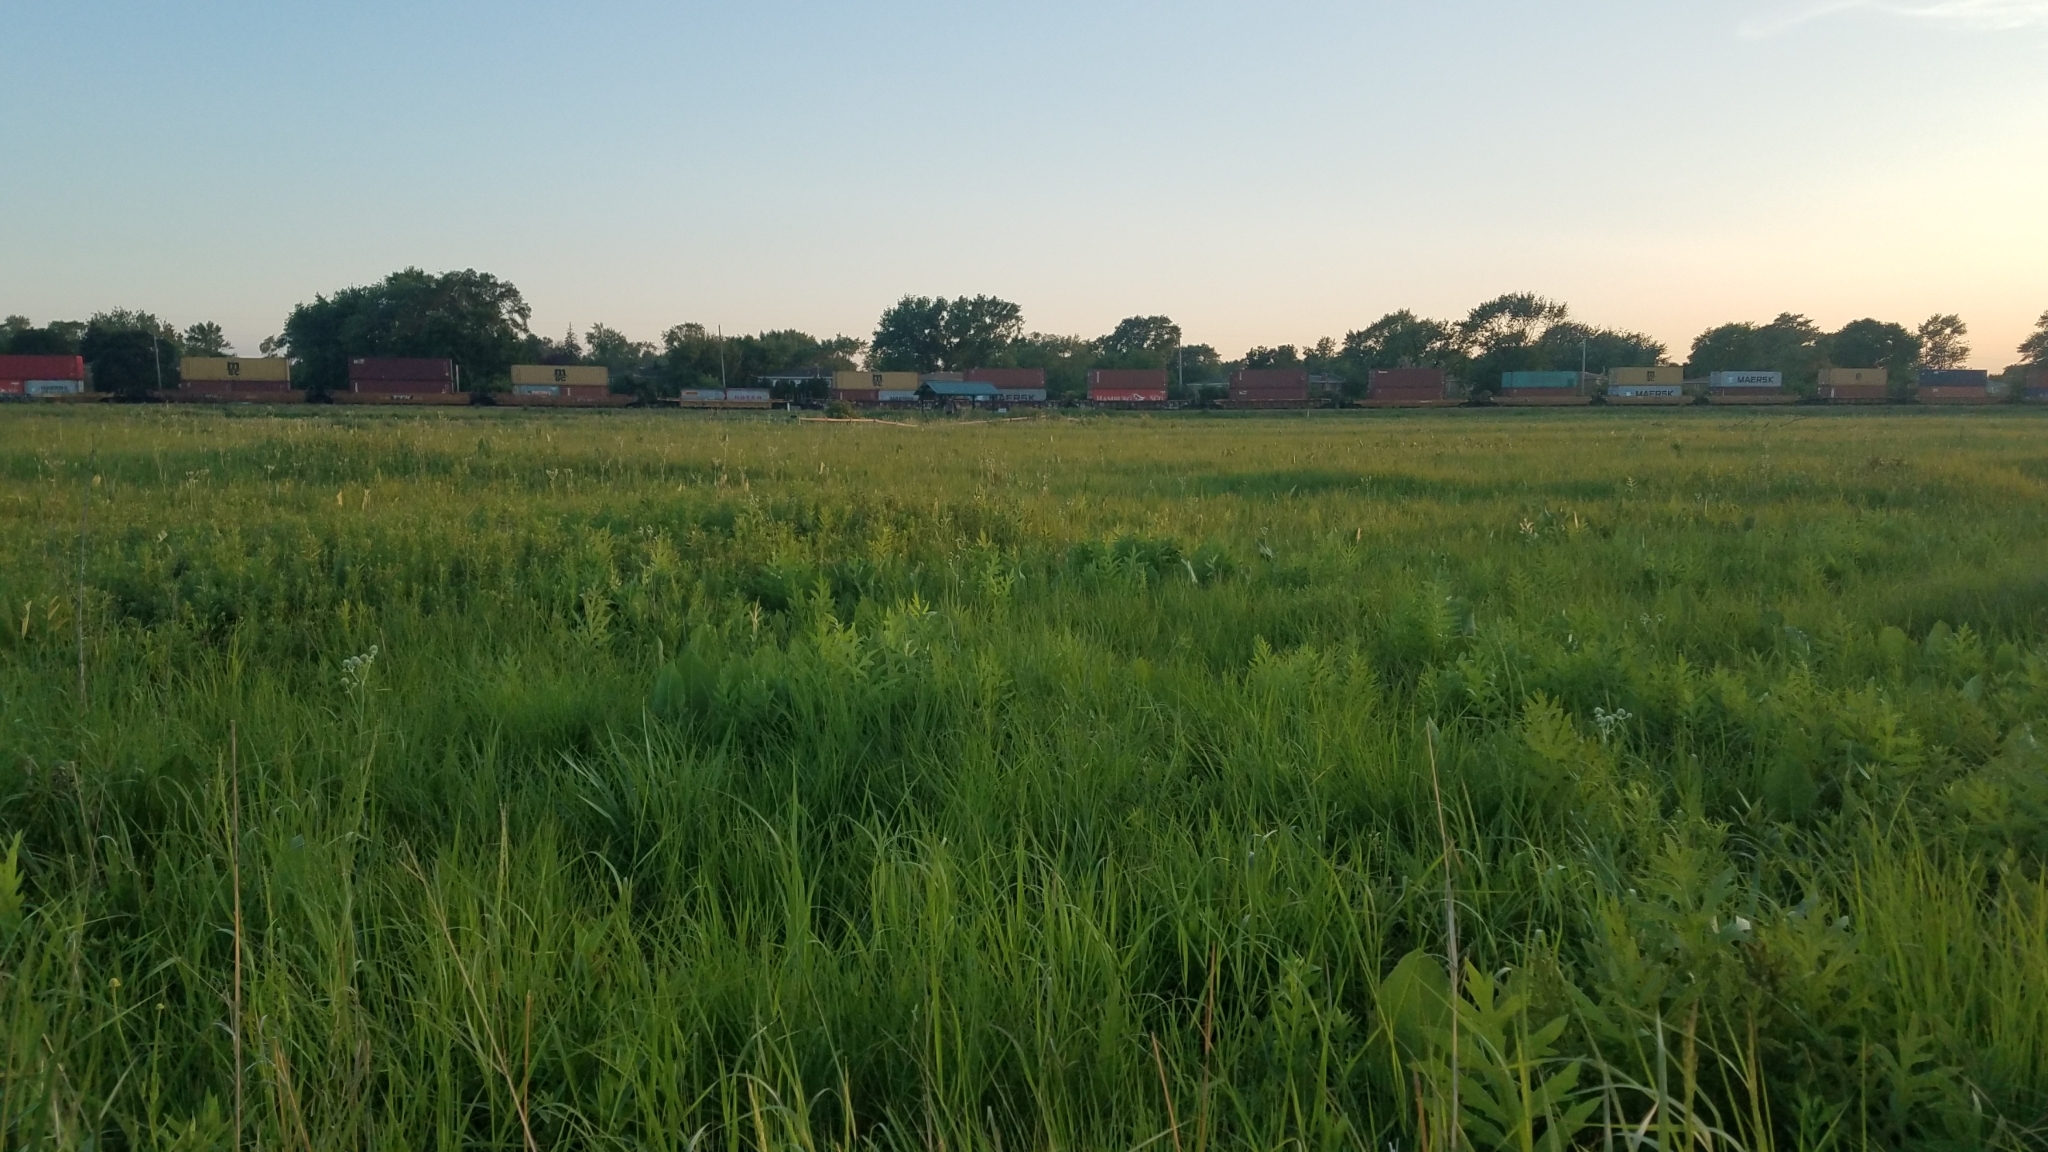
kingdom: Plantae
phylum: Tracheophyta
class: Magnoliopsida
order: Asterales
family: Asteraceae
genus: Silphium
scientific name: Silphium laciniatum
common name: Polarplant
